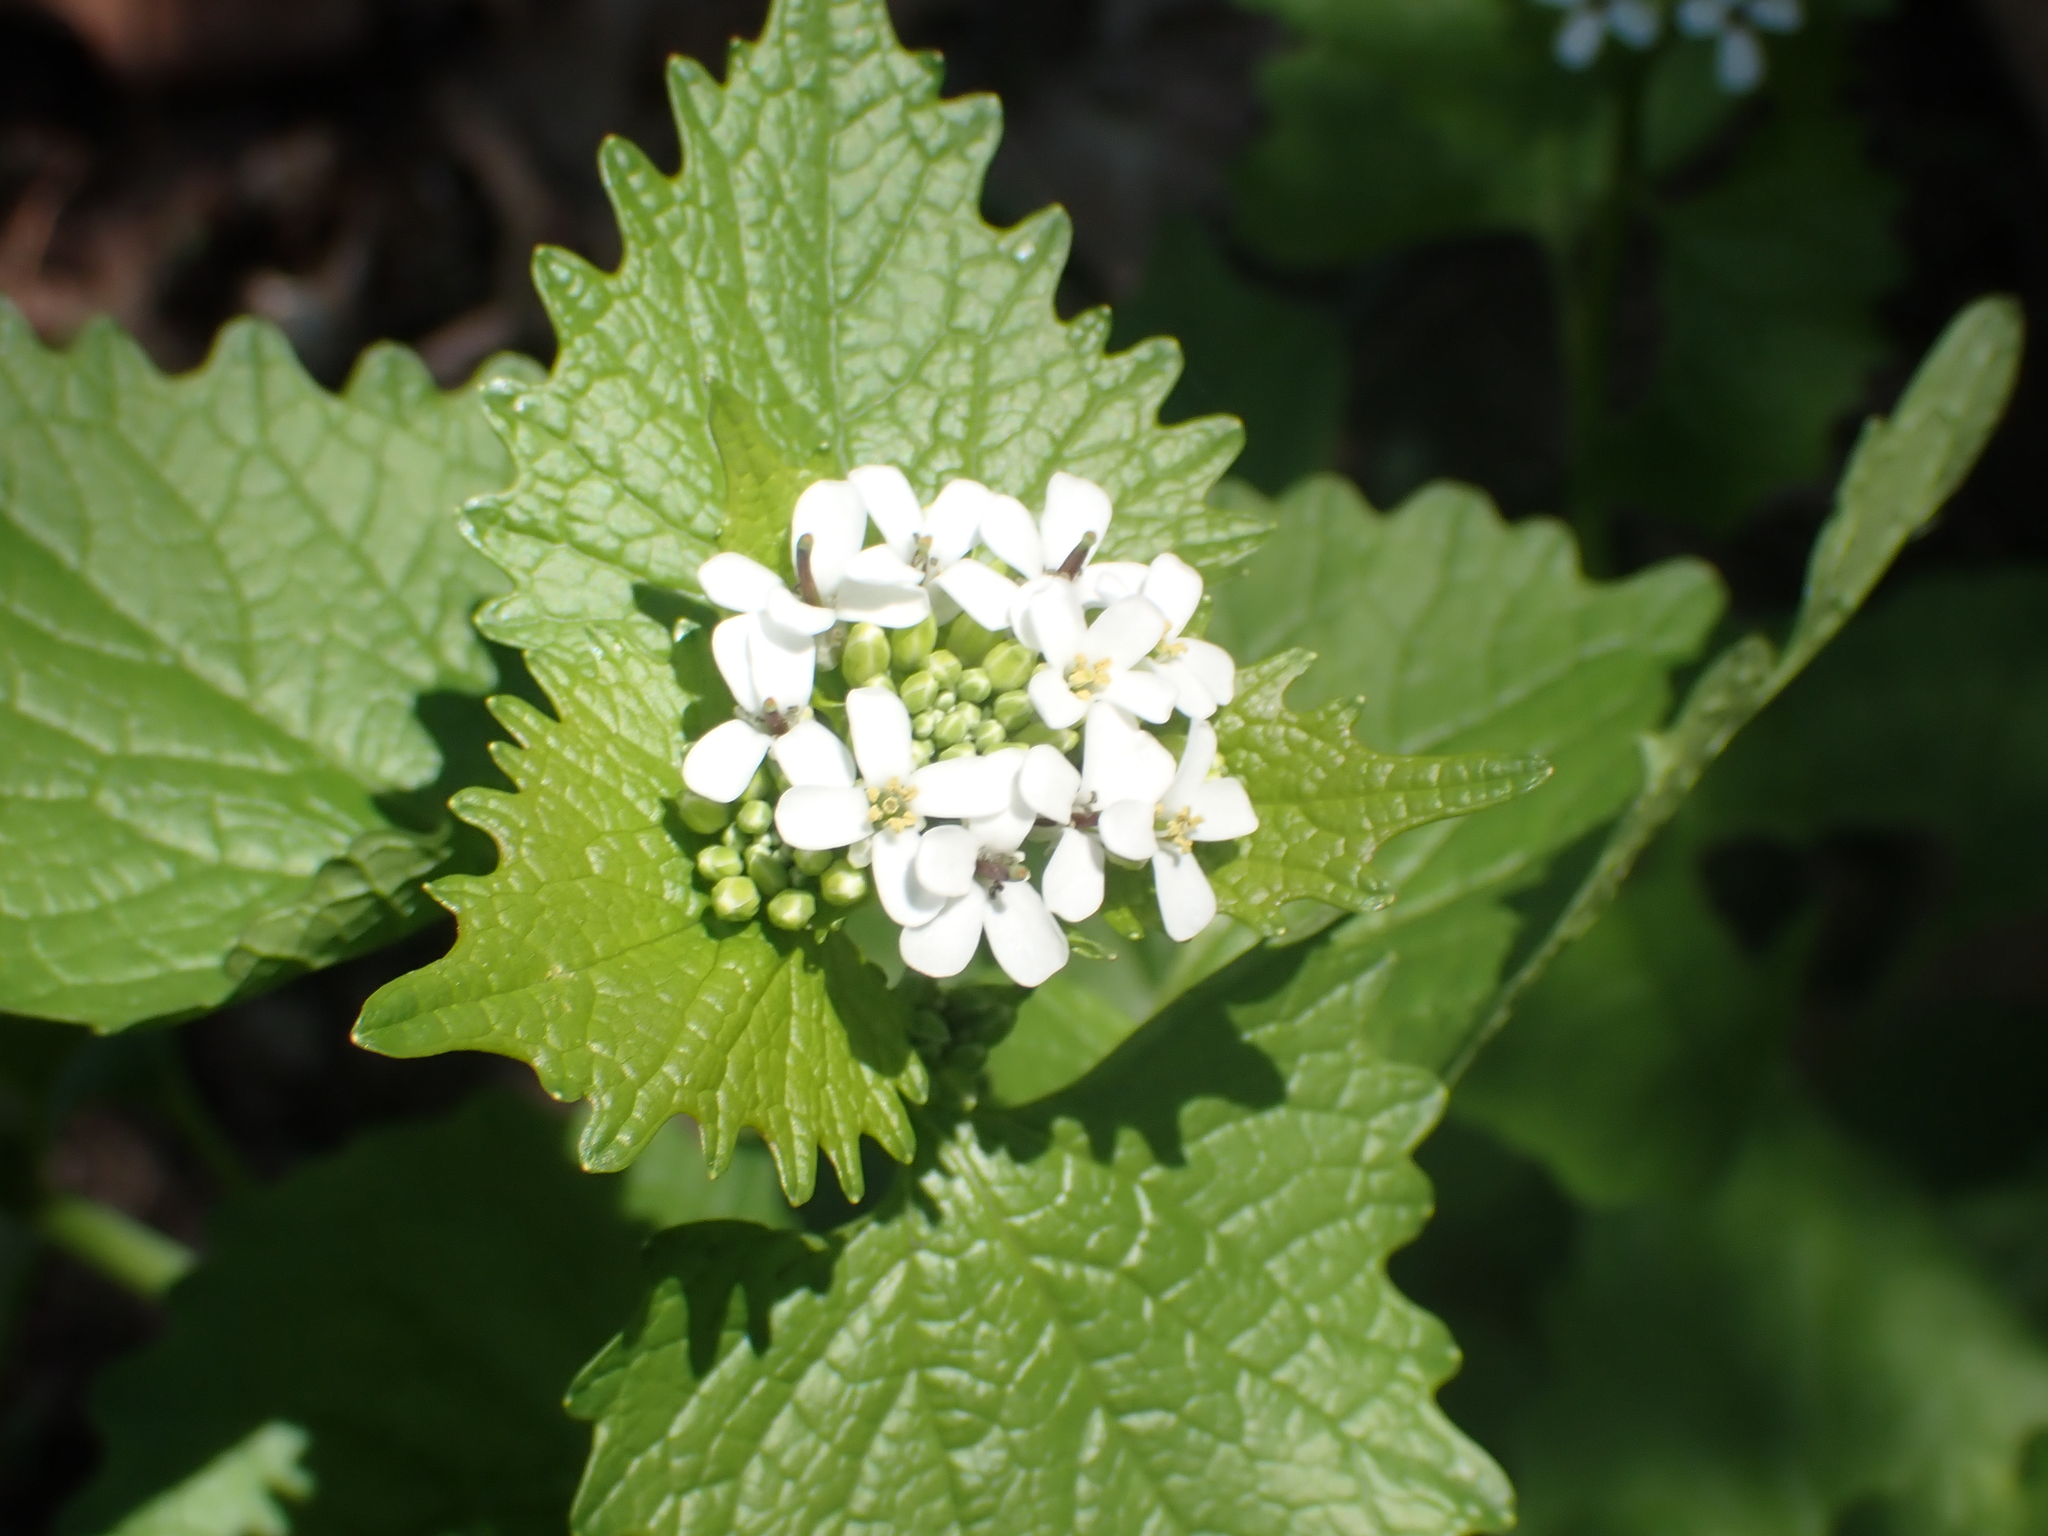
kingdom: Plantae
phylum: Tracheophyta
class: Magnoliopsida
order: Brassicales
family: Brassicaceae
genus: Alliaria
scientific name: Alliaria petiolata
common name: Garlic mustard
